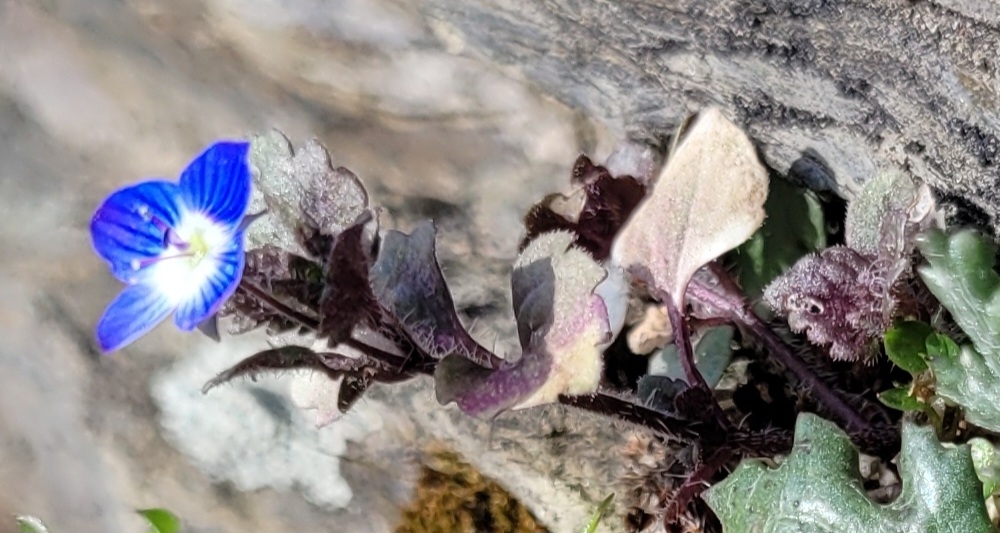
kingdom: Plantae
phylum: Tracheophyta
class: Magnoliopsida
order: Lamiales
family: Plantaginaceae
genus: Veronica
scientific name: Veronica persica
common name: Common field-speedwell
